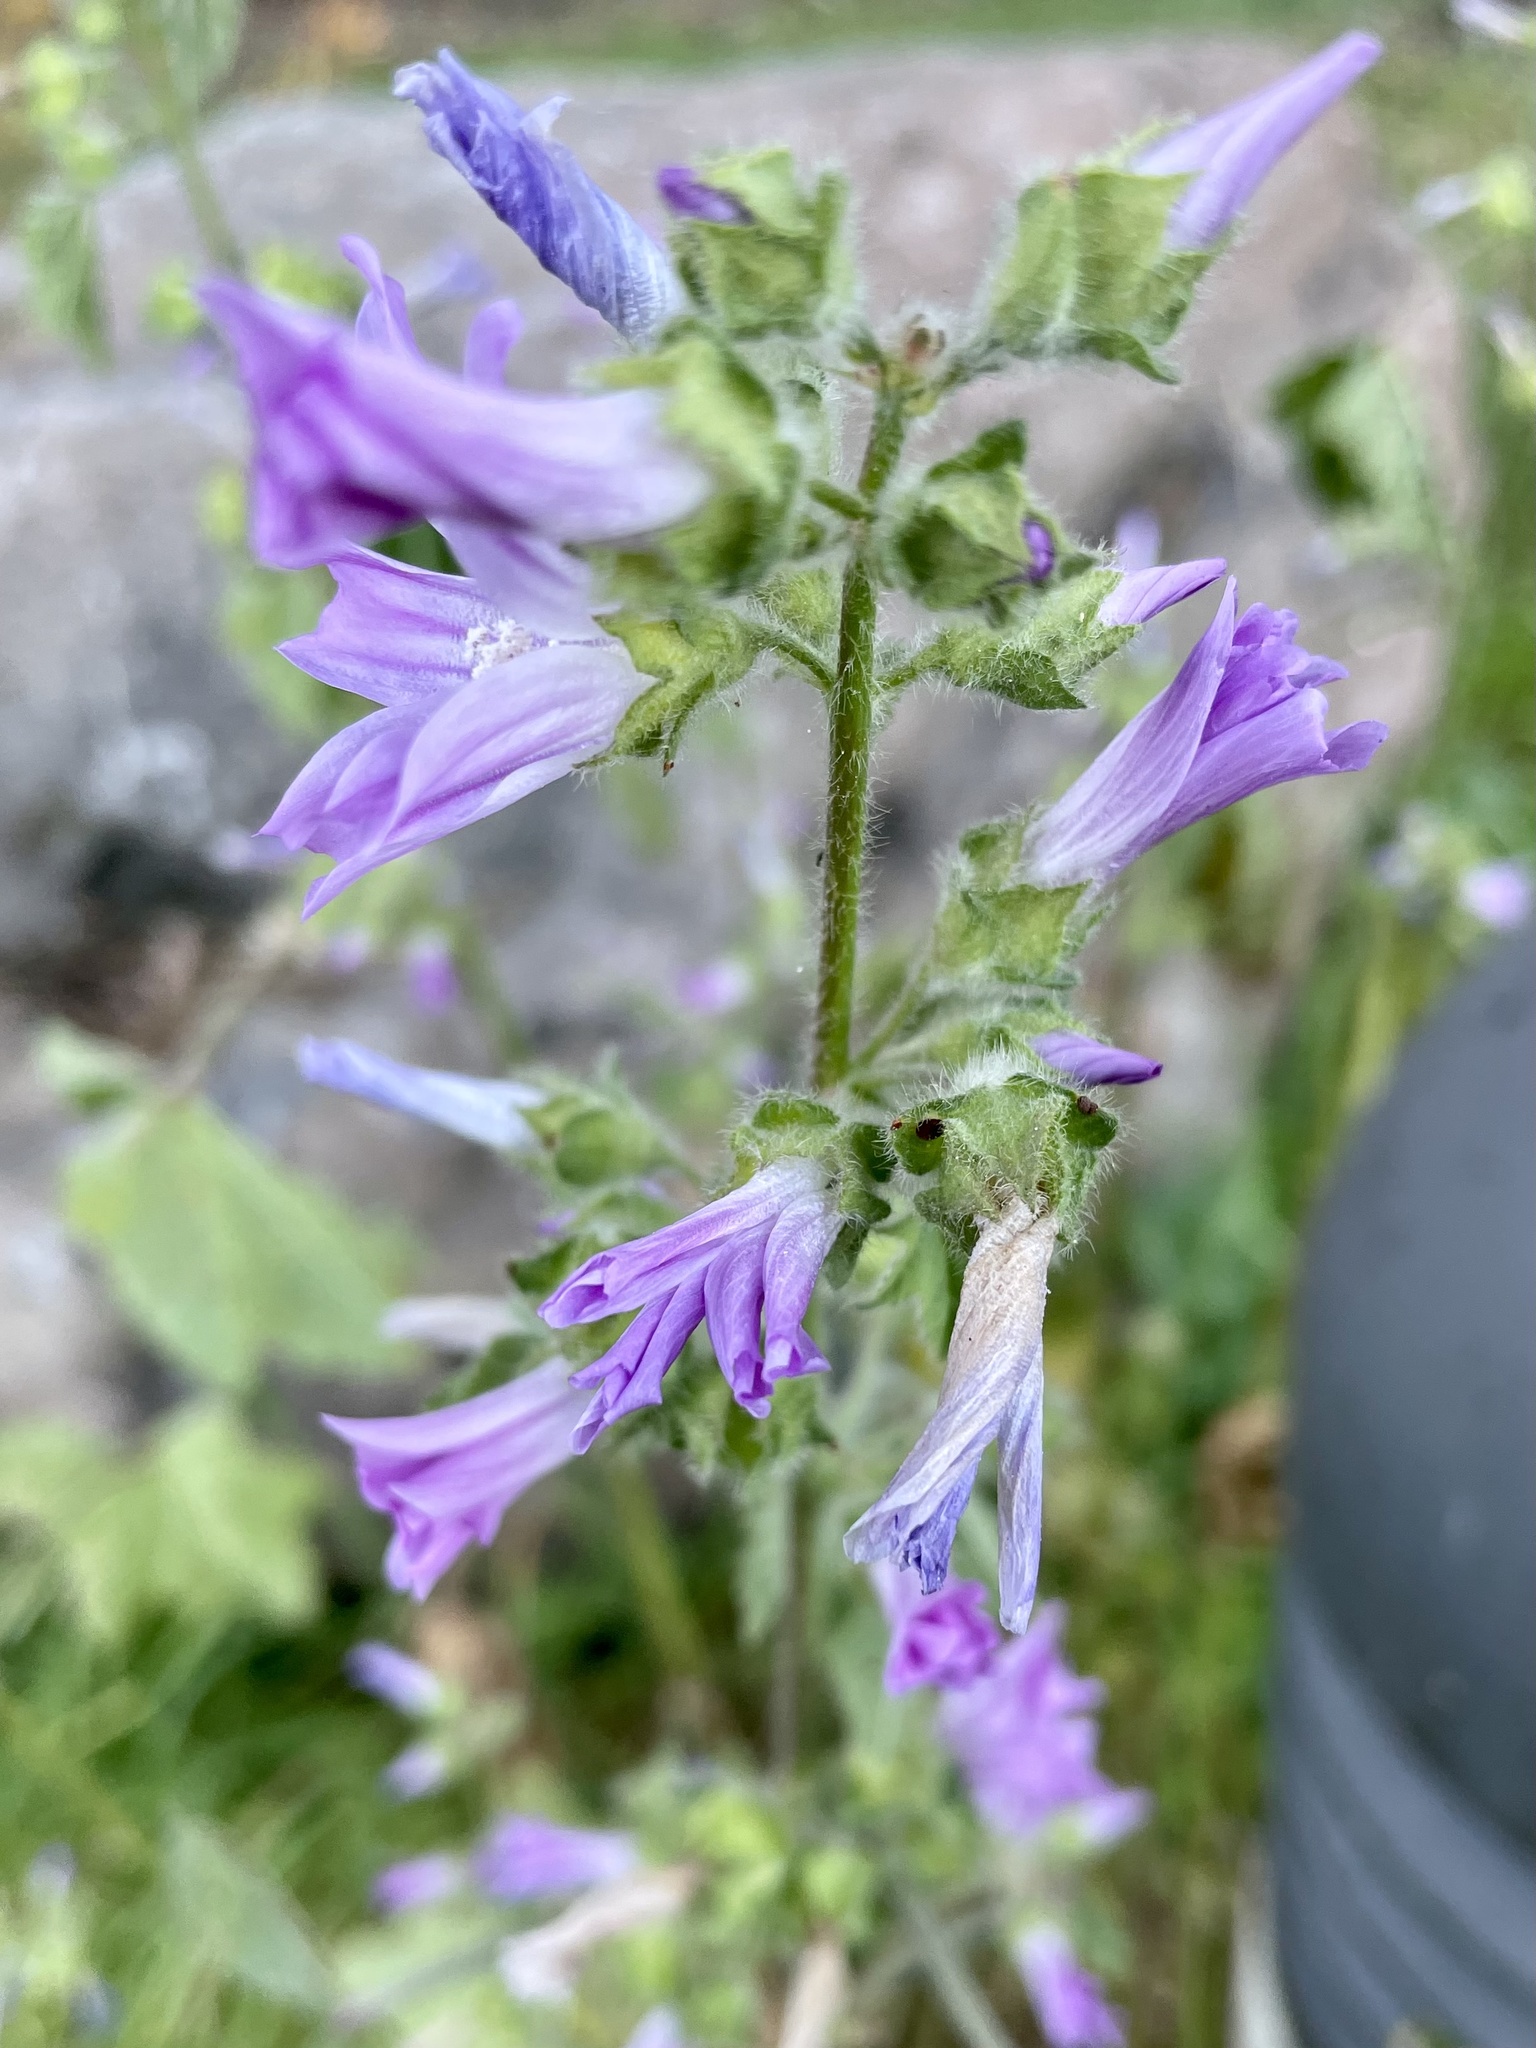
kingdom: Plantae
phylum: Tracheophyta
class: Magnoliopsida
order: Malvales
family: Malvaceae
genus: Malva
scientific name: Malva multiflora
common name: Cheeseweed
